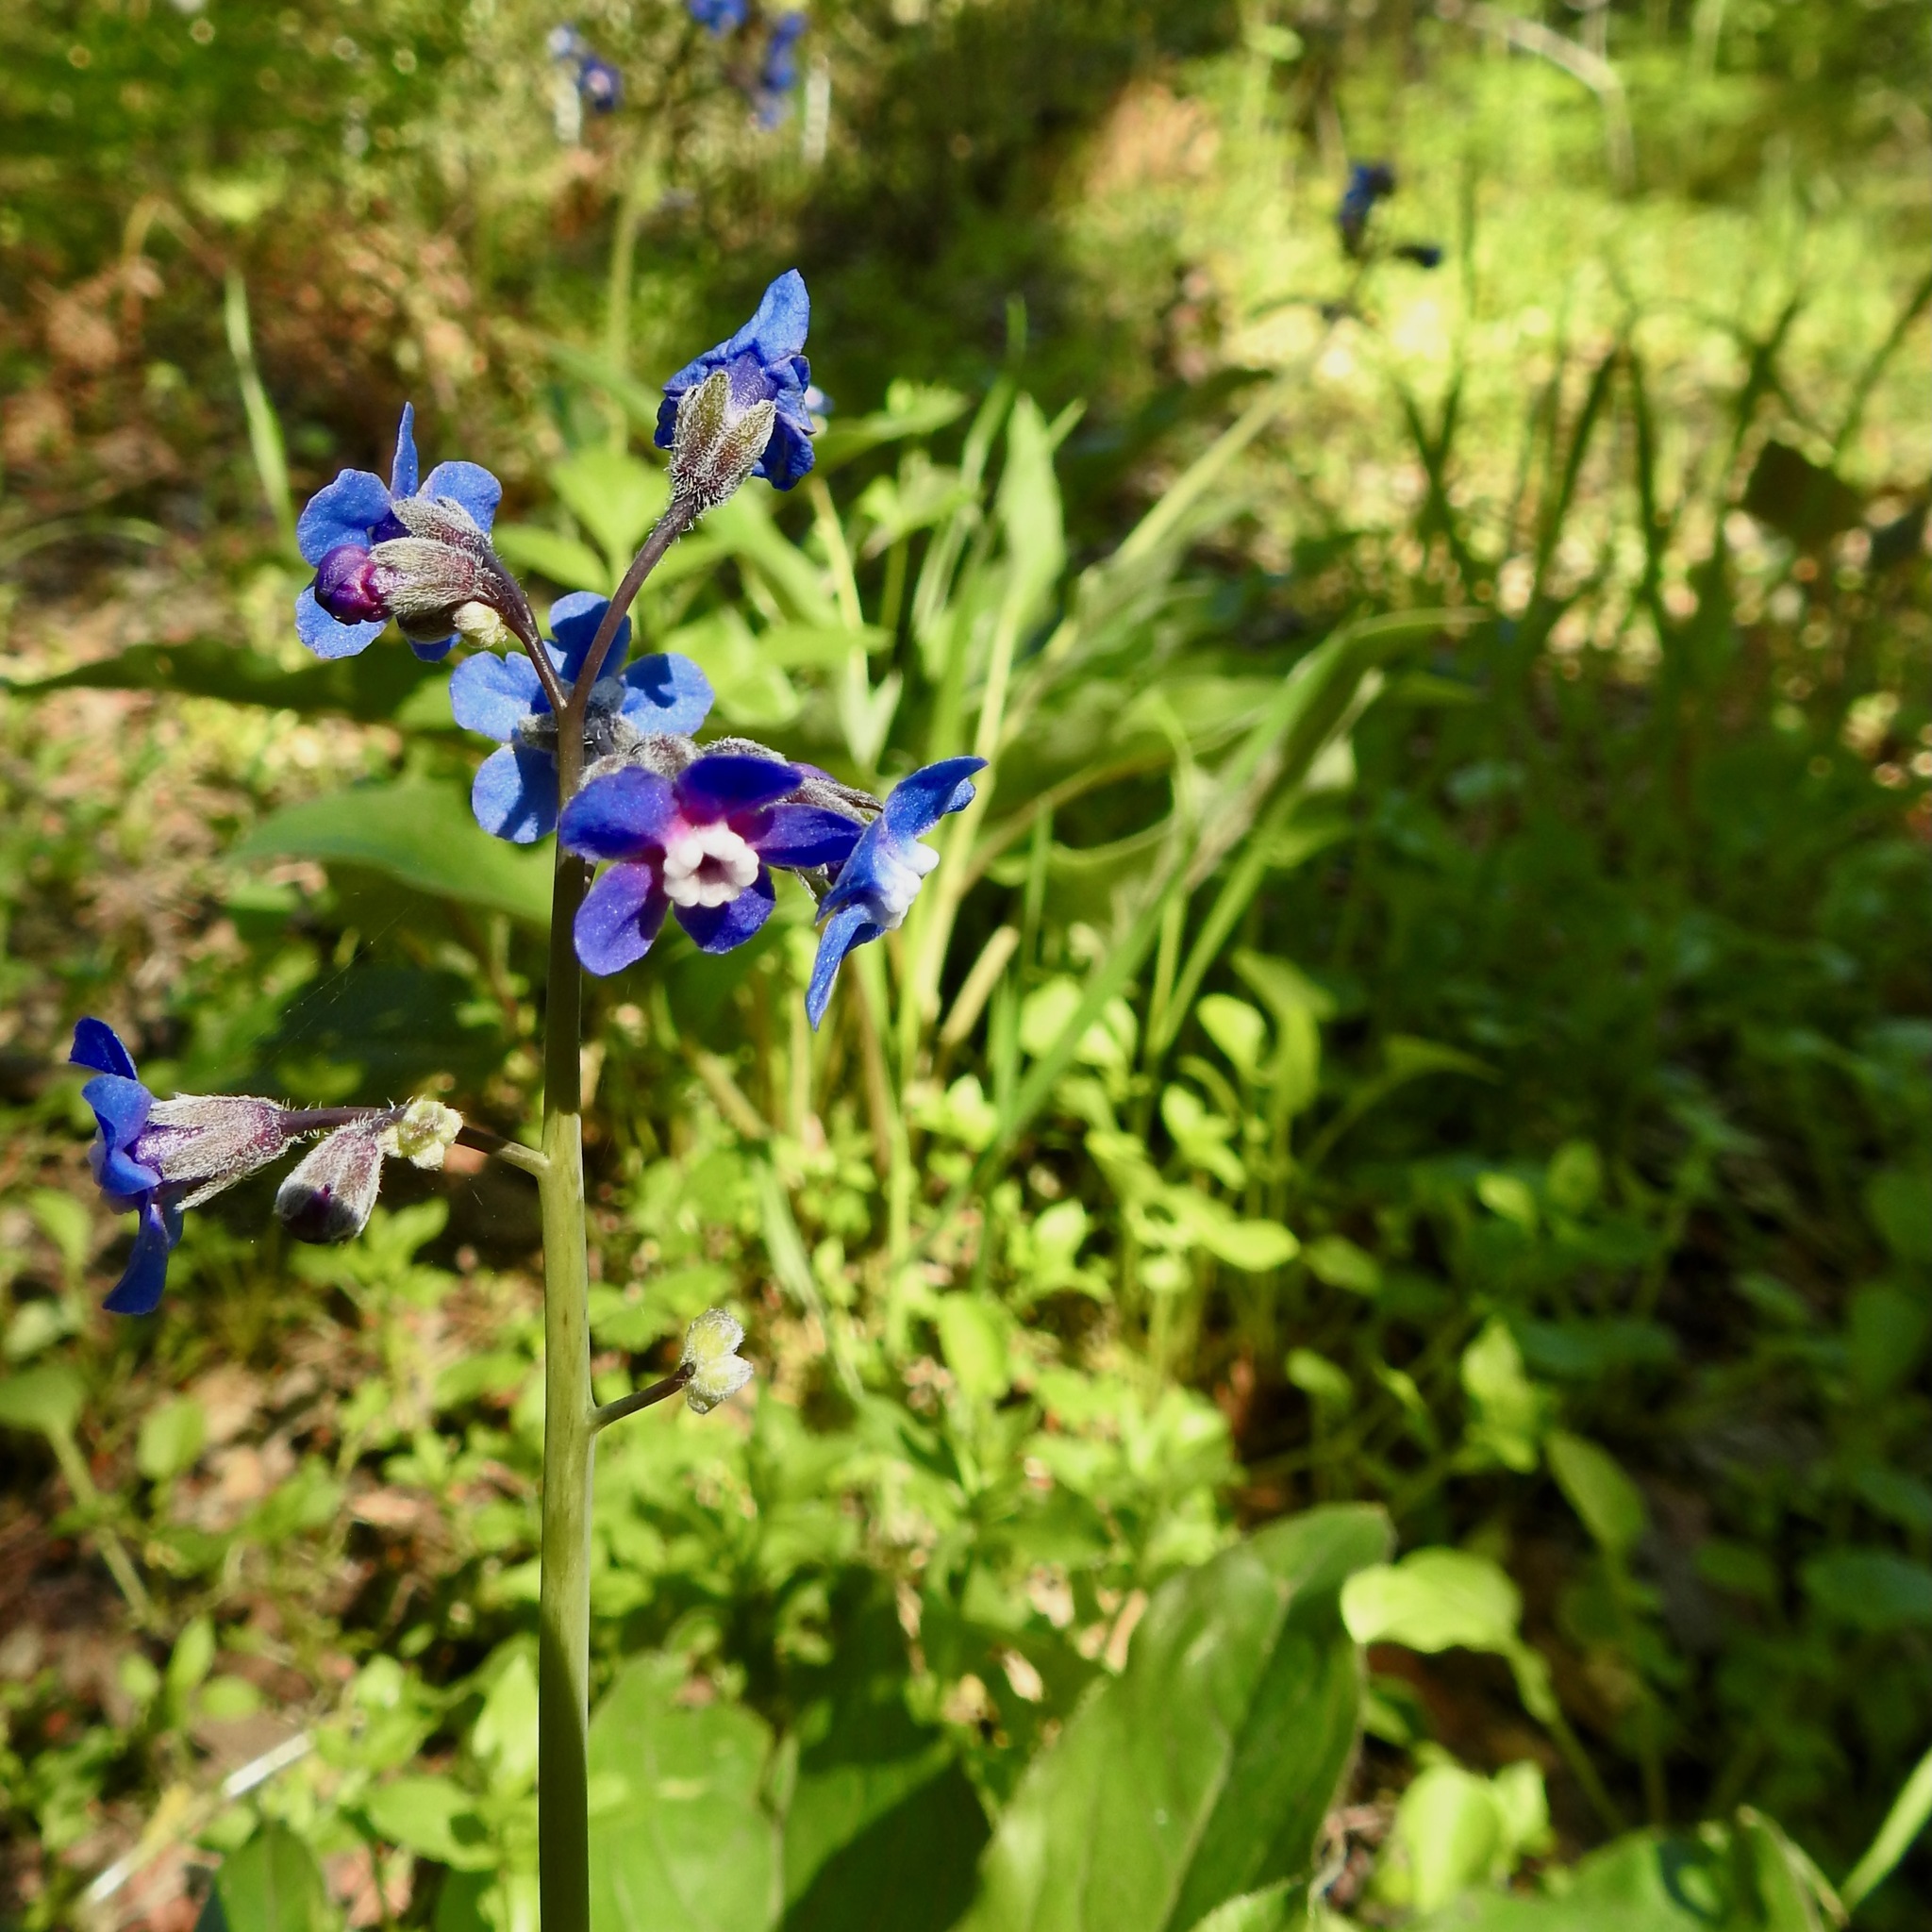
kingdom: Plantae
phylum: Tracheophyta
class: Magnoliopsida
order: Boraginales
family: Boraginaceae
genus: Adelinia
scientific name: Adelinia grande
